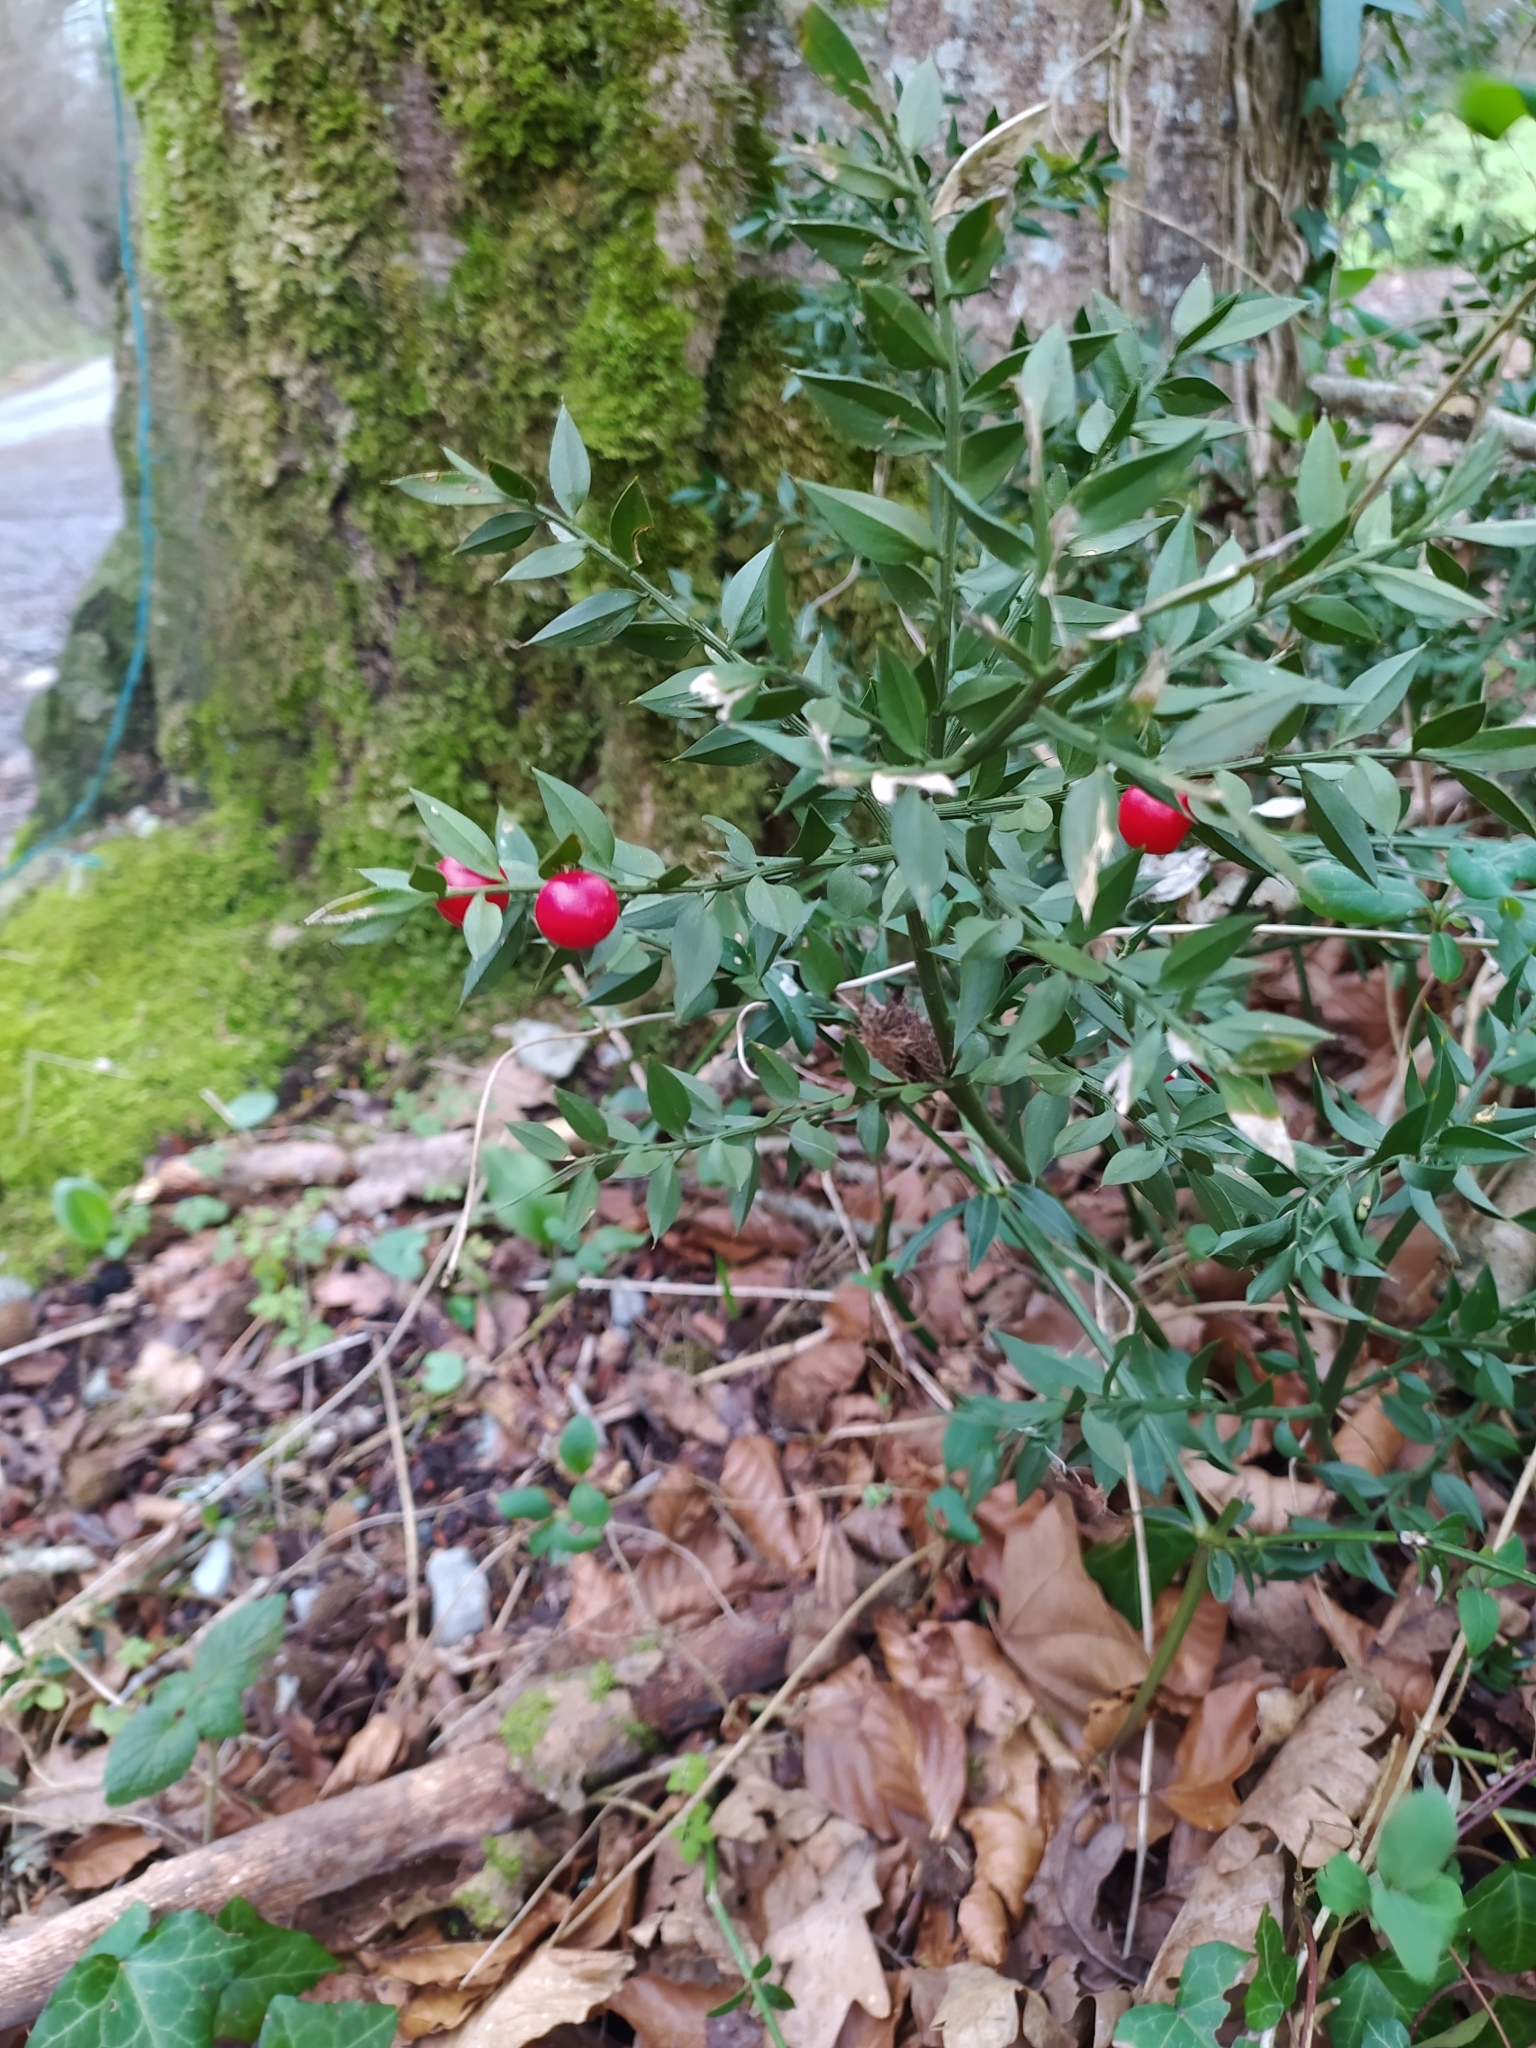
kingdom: Plantae
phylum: Tracheophyta
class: Liliopsida
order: Asparagales
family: Asparagaceae
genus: Ruscus
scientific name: Ruscus aculeatus
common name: Butcher's-broom
